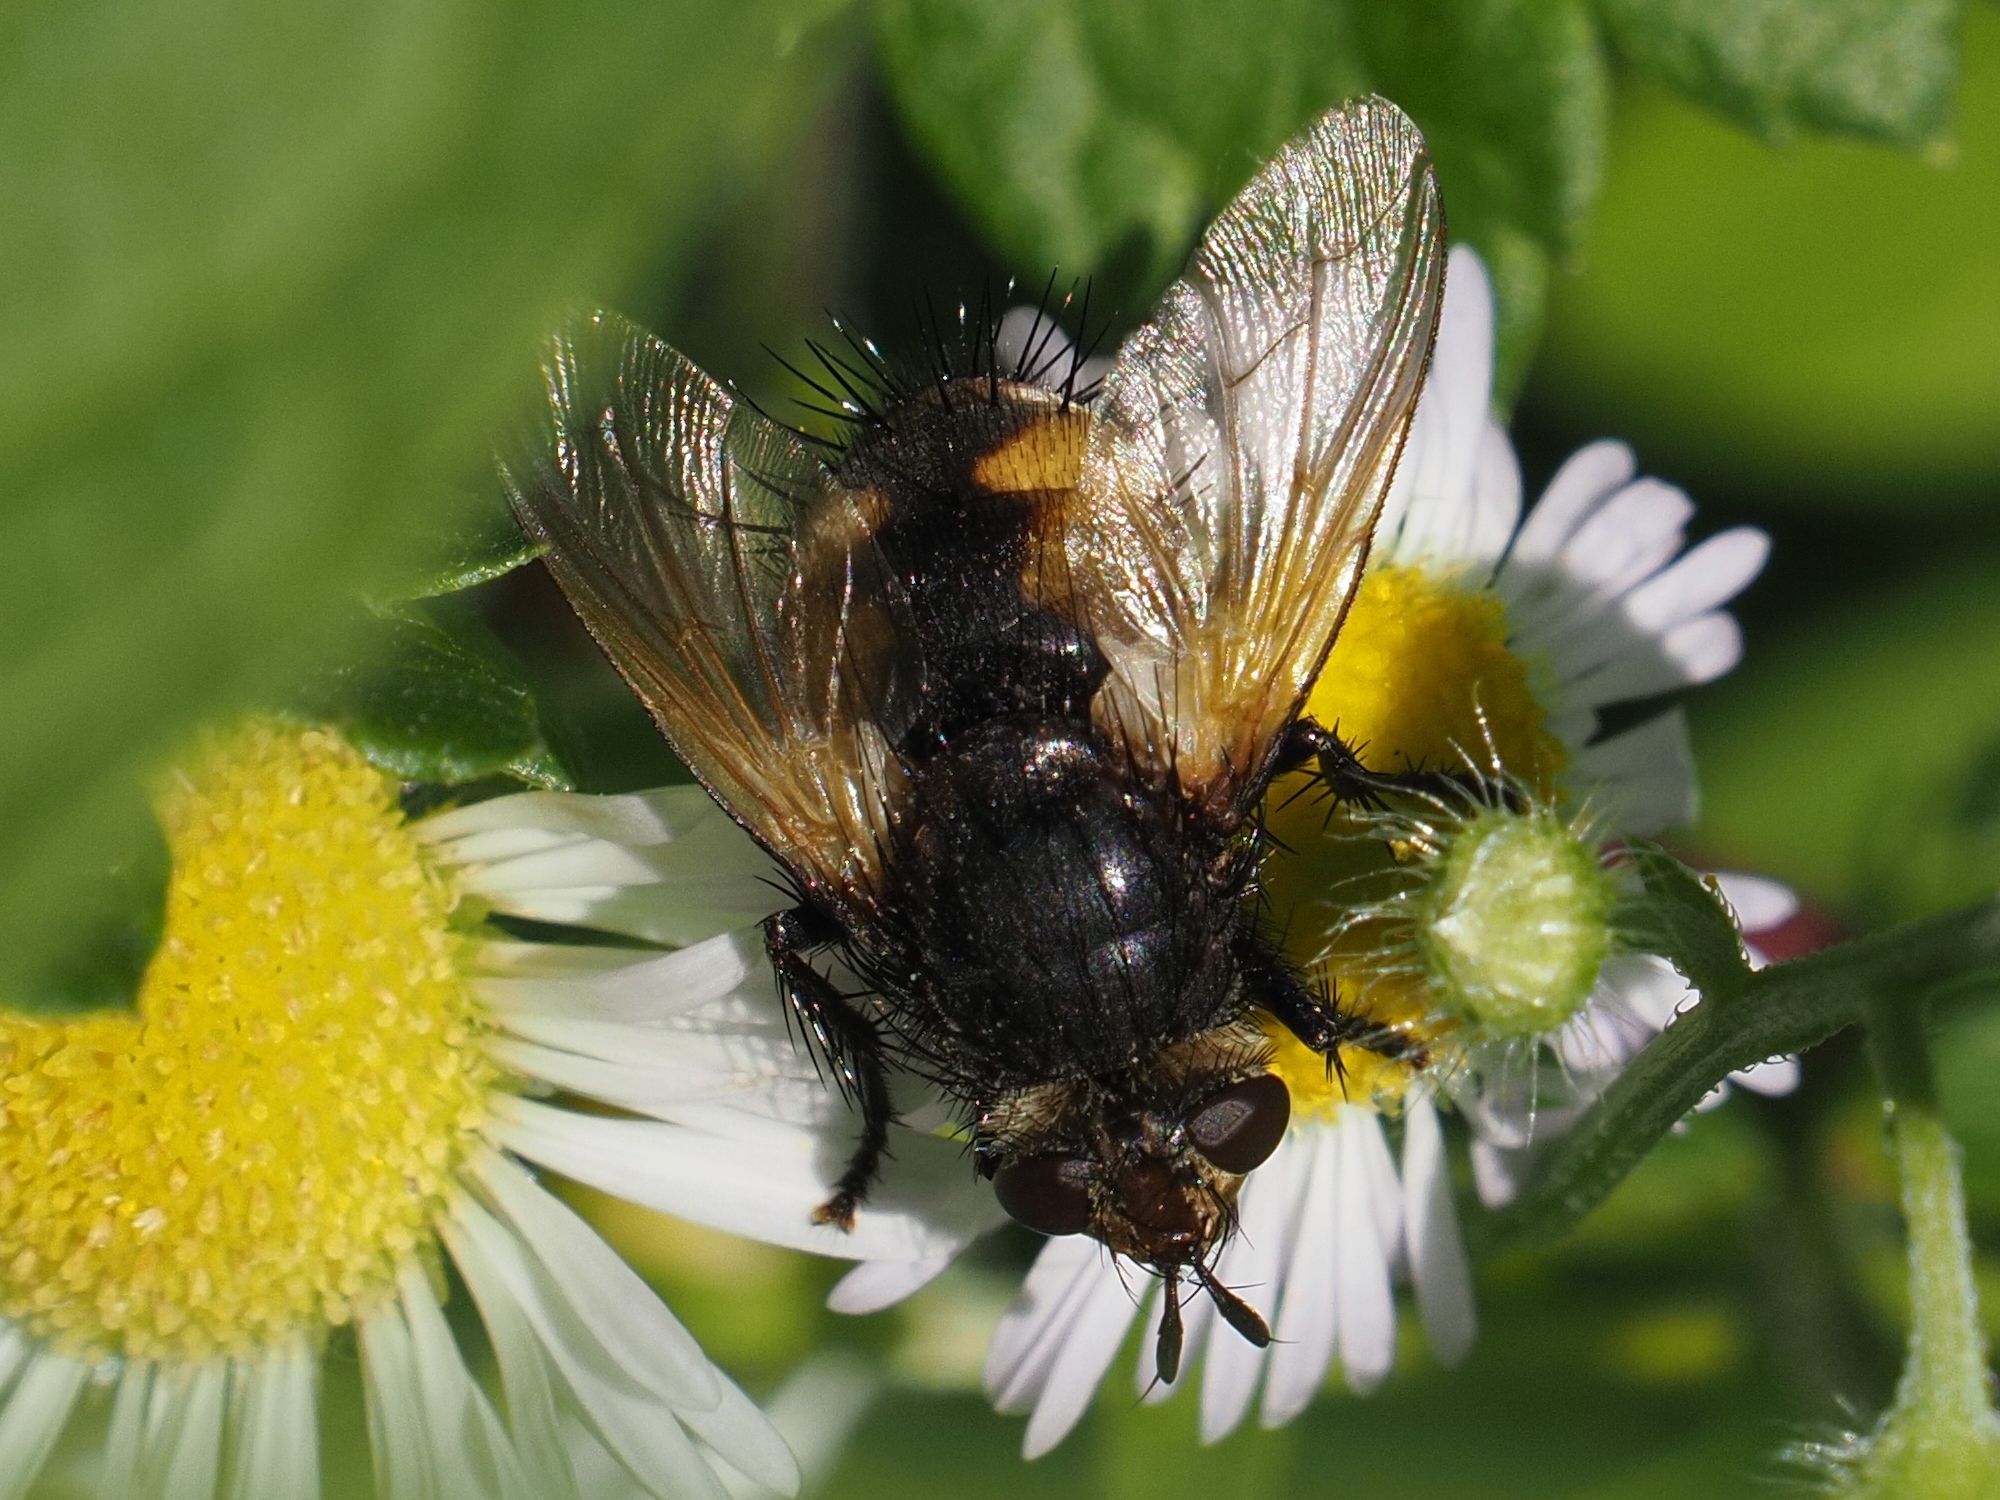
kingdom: Animalia
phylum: Arthropoda
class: Insecta
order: Diptera
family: Tachinidae
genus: Nowickia
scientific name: Nowickia ferox
